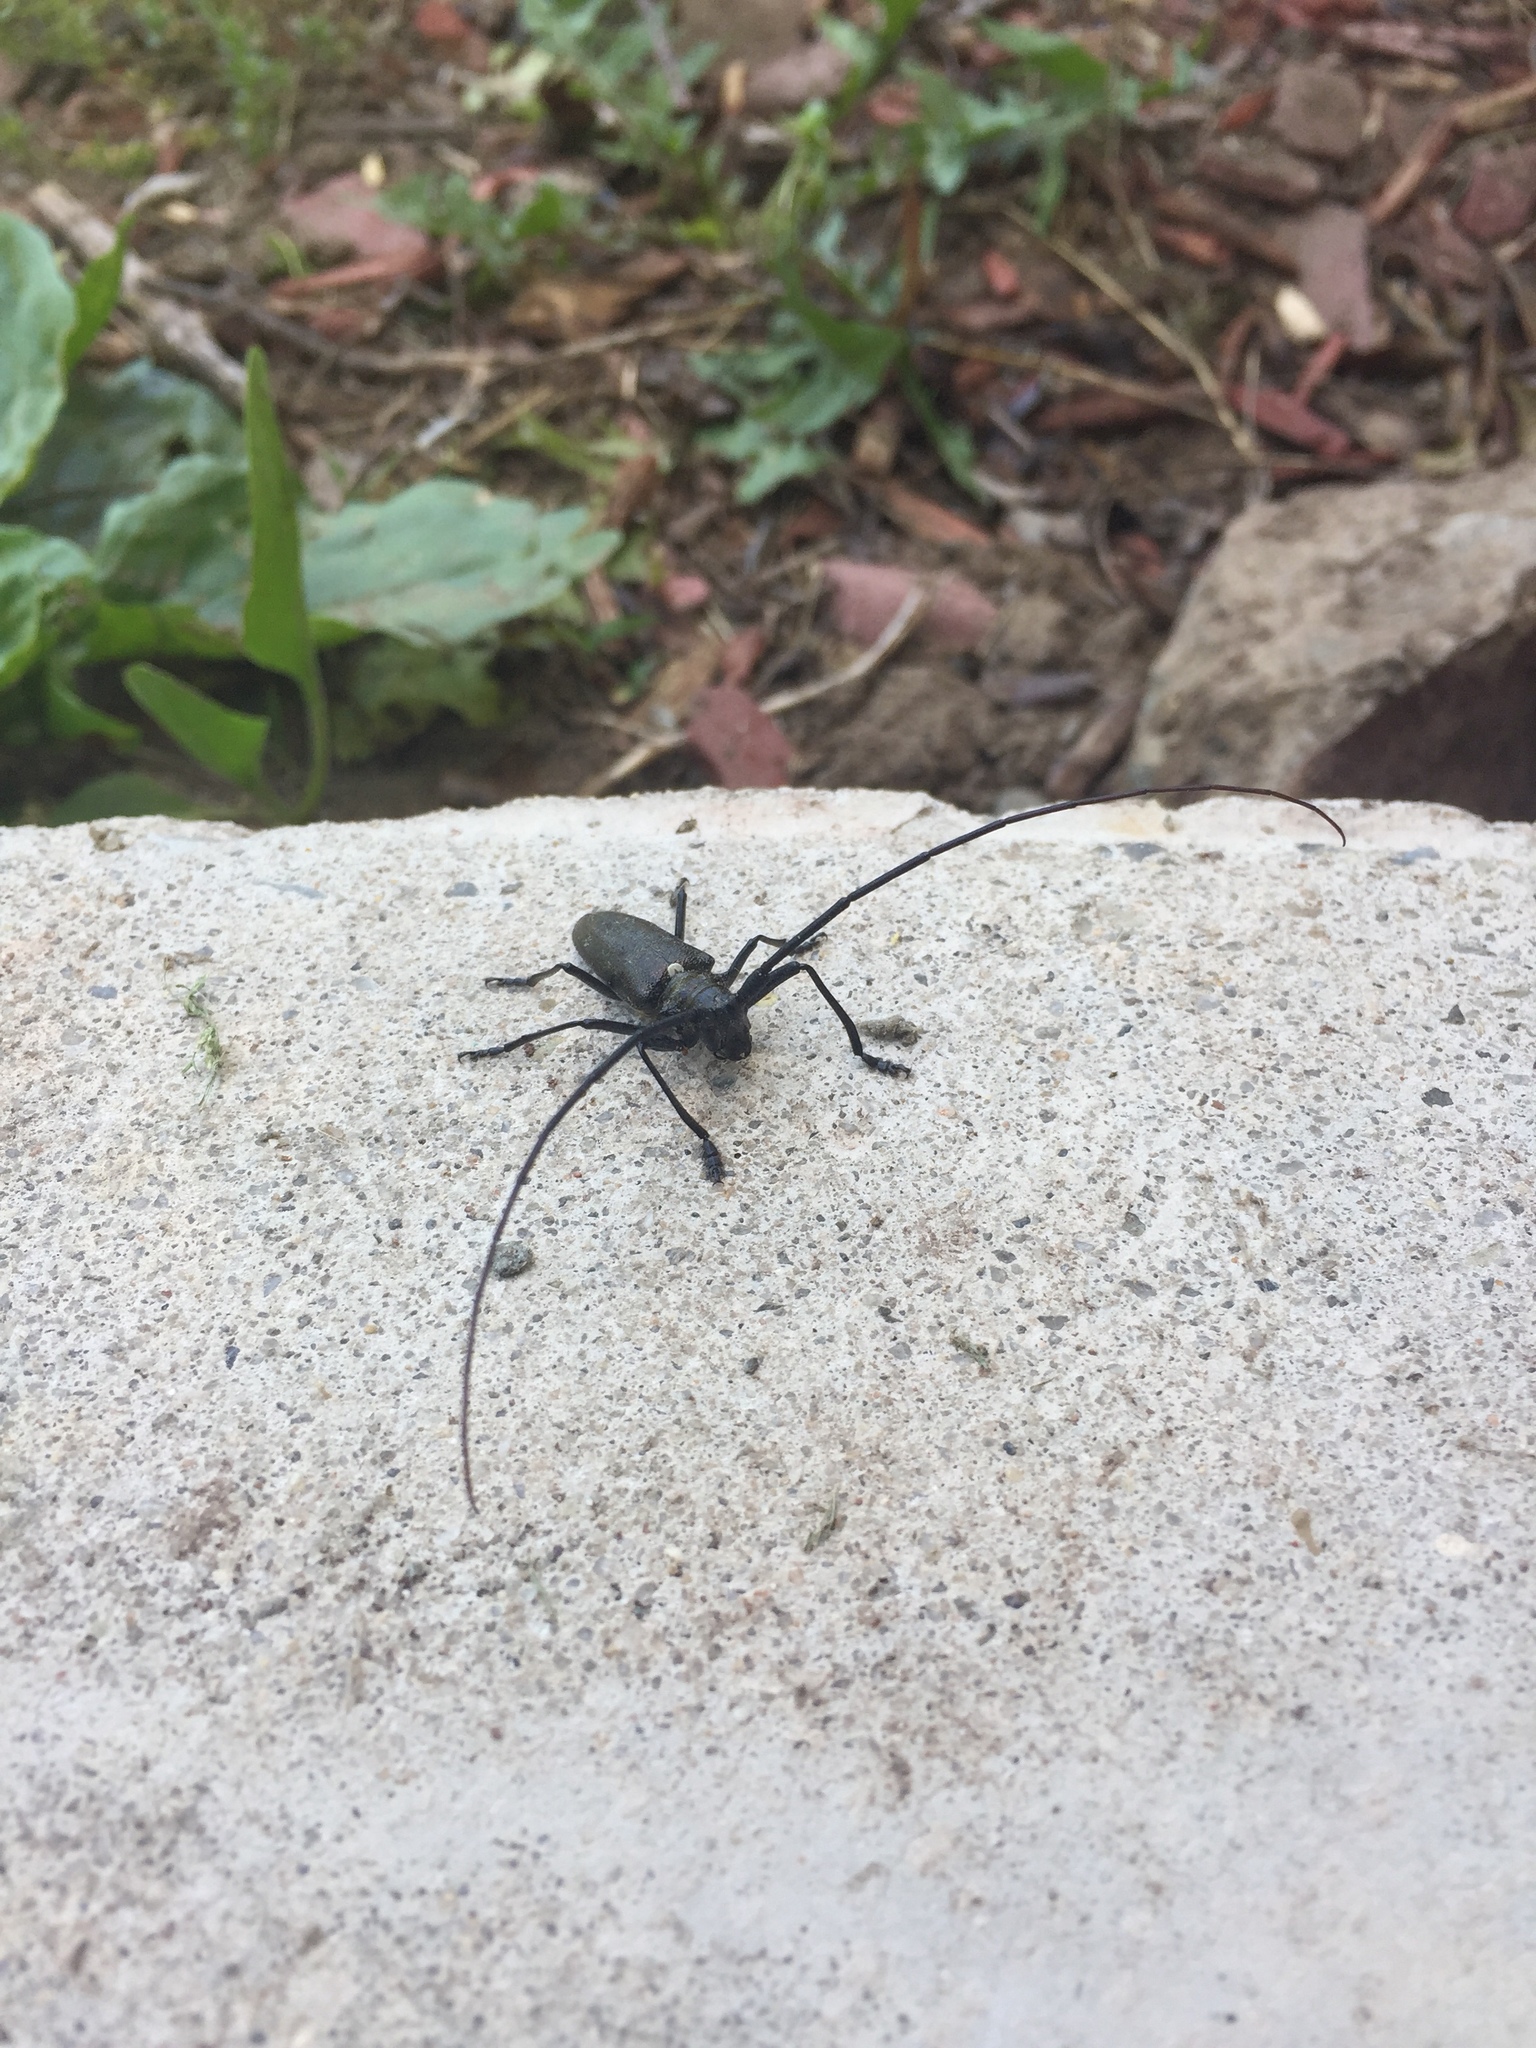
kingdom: Animalia
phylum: Arthropoda
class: Insecta
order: Coleoptera
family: Cerambycidae
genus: Monochamus
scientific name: Monochamus scutellatus
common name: White-spotted sawyer beetle
